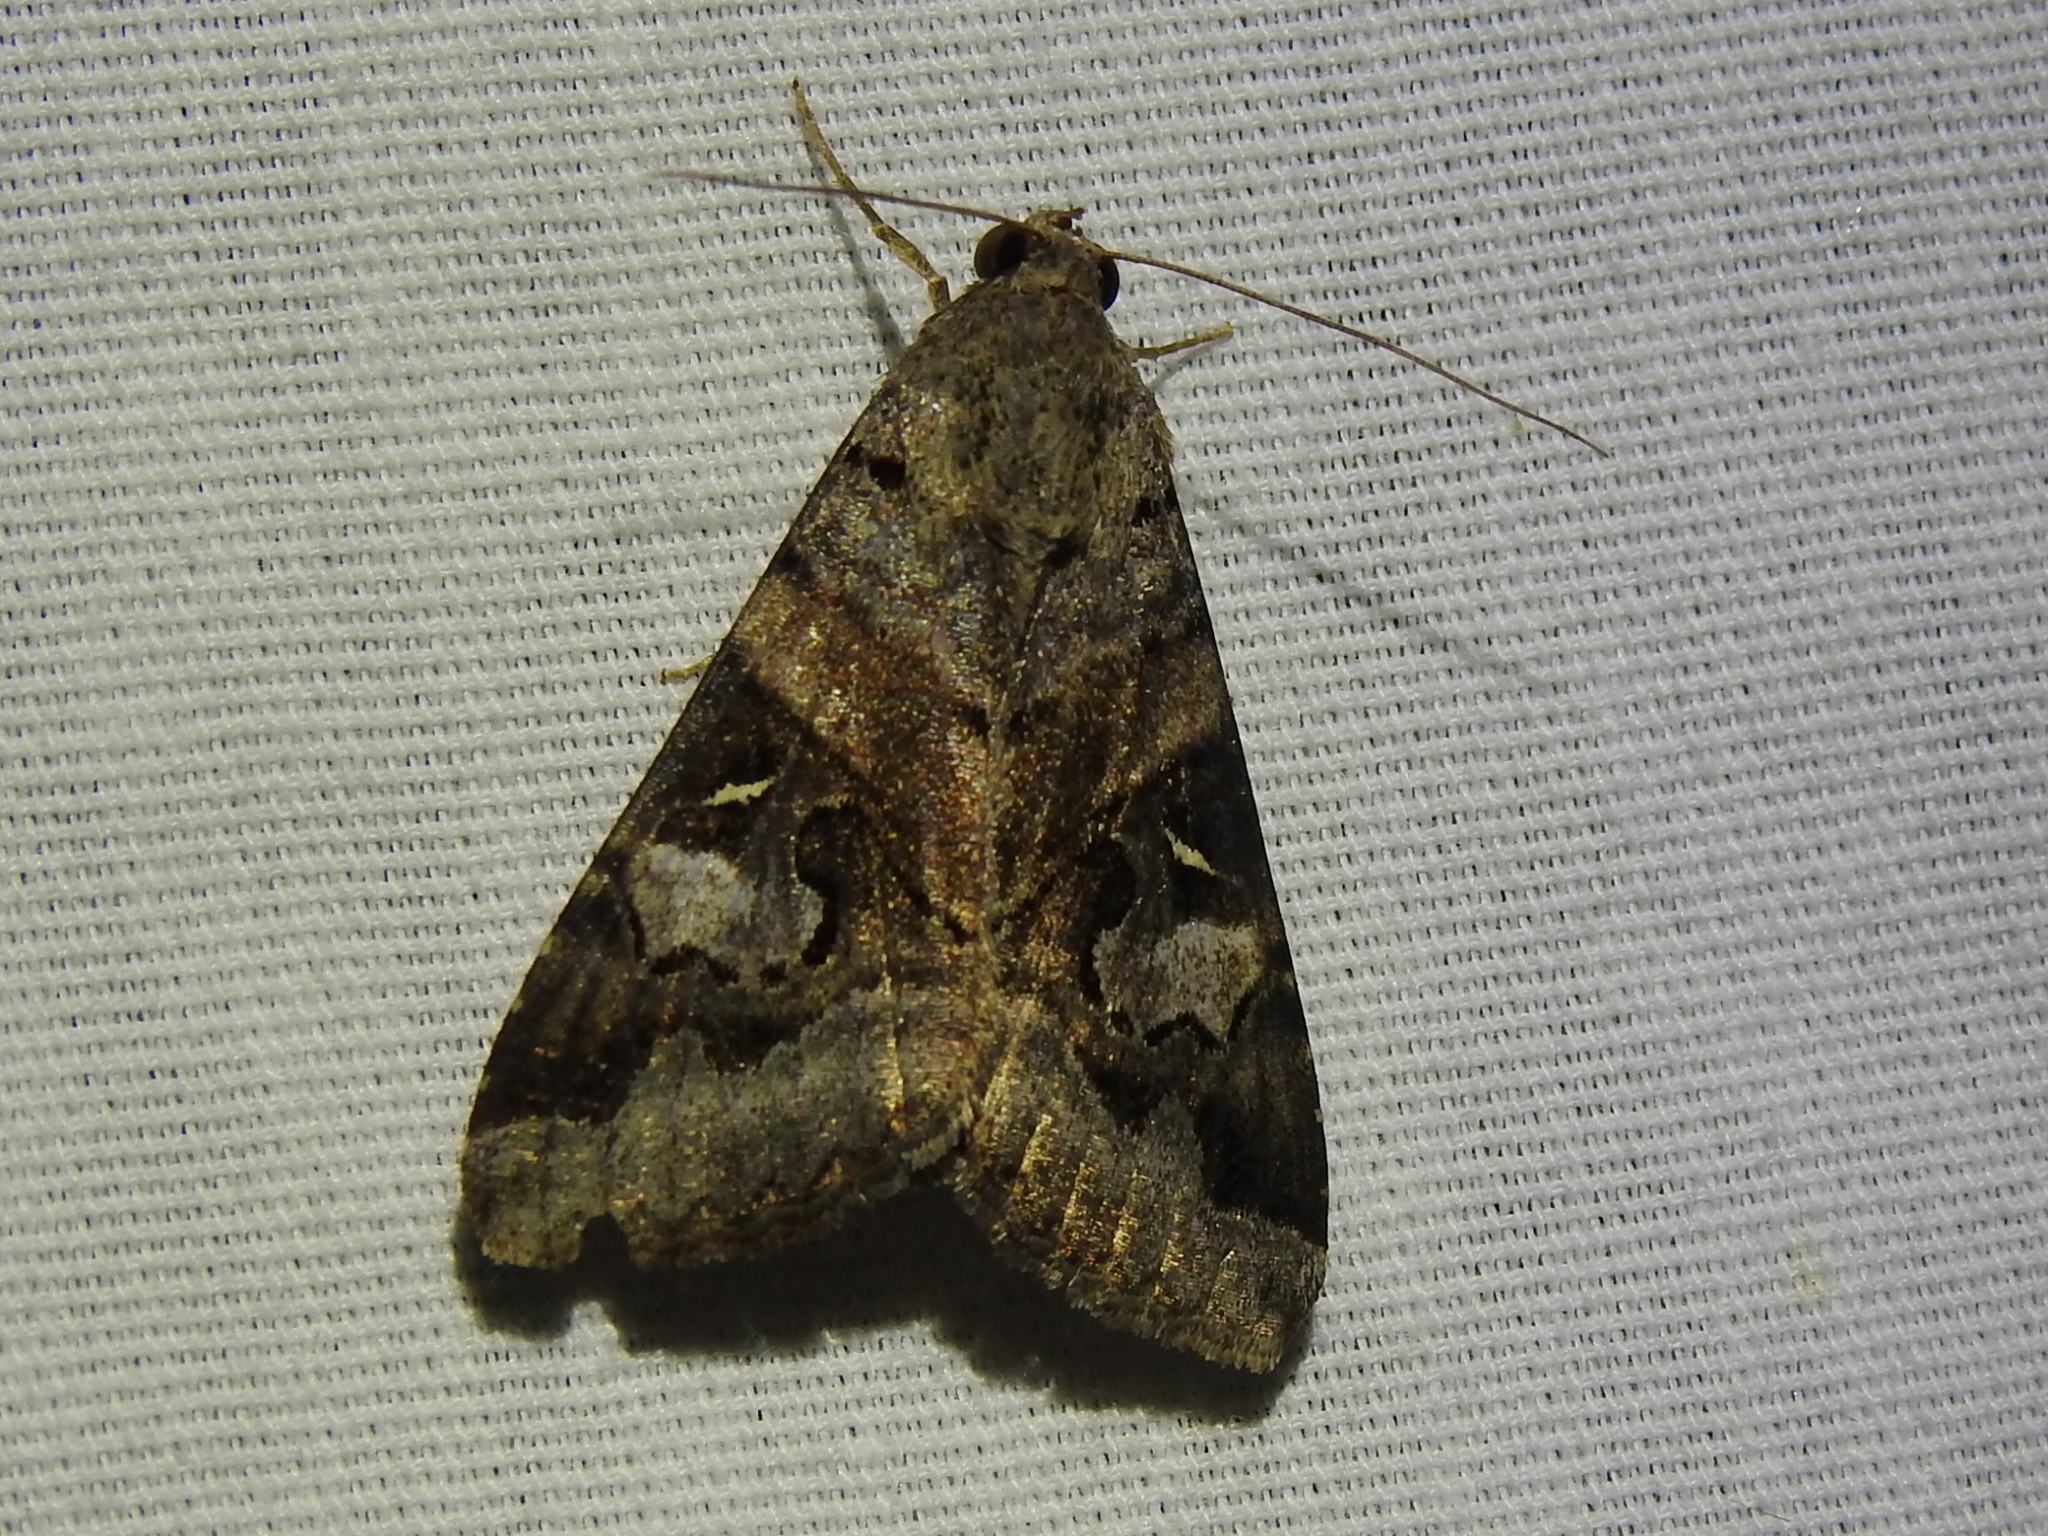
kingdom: Animalia
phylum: Arthropoda
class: Insecta
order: Lepidoptera
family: Erebidae
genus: Melipotis
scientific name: Melipotis indomita
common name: Moth
